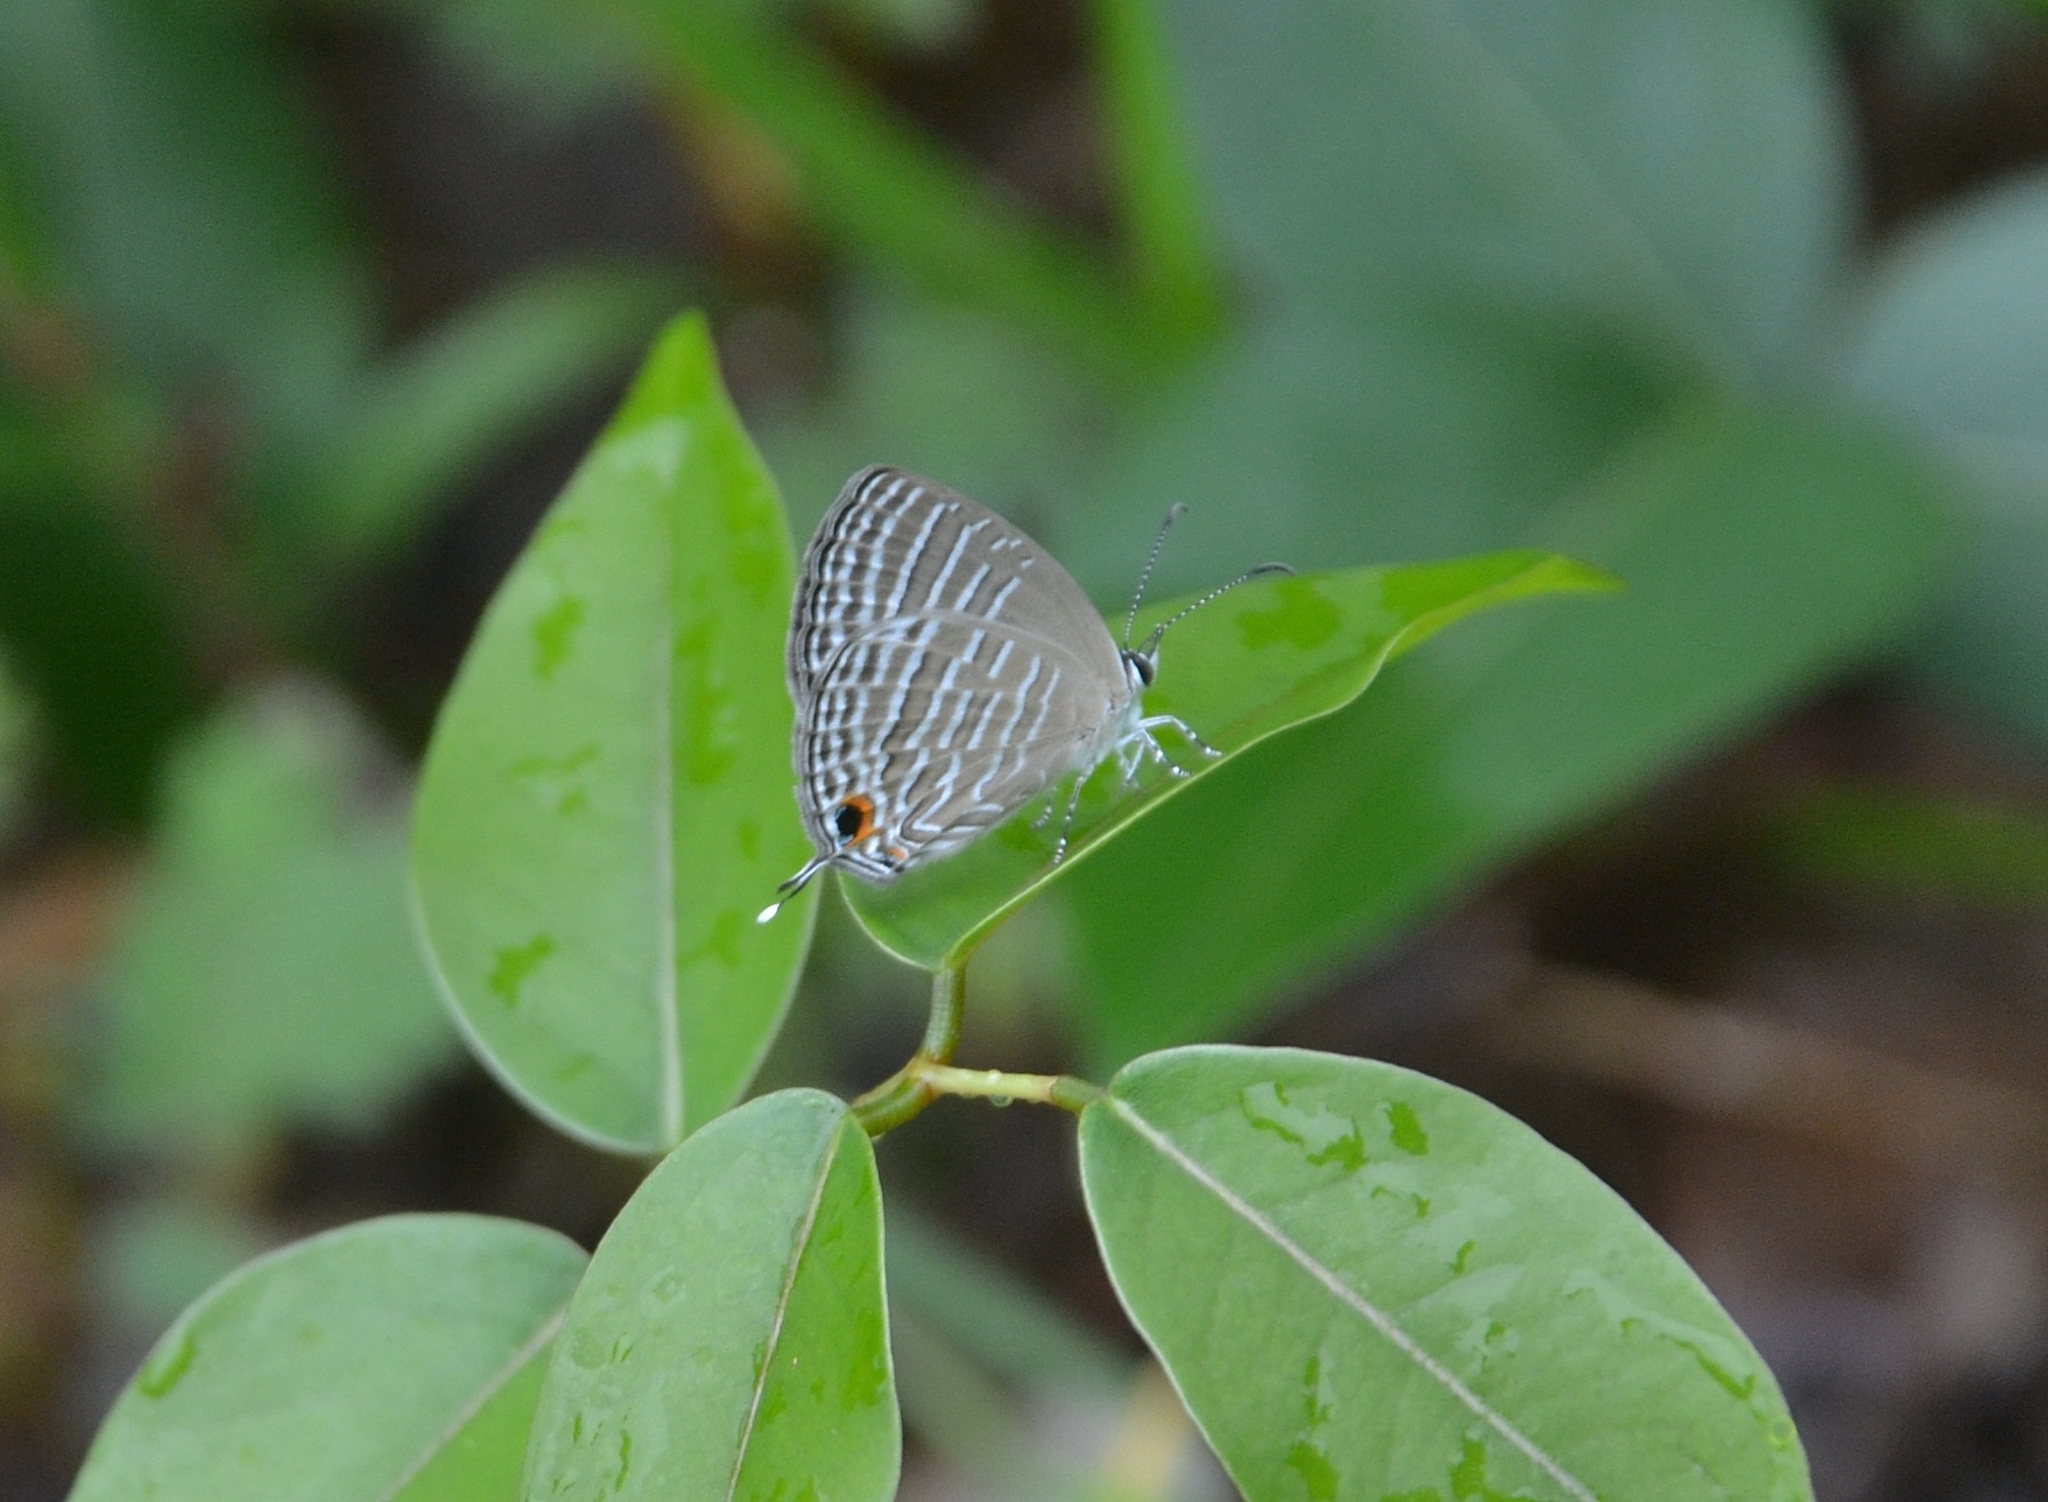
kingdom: Animalia
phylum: Arthropoda
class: Insecta
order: Lepidoptera
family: Lycaenidae
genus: Jamides
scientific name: Jamides celeno
